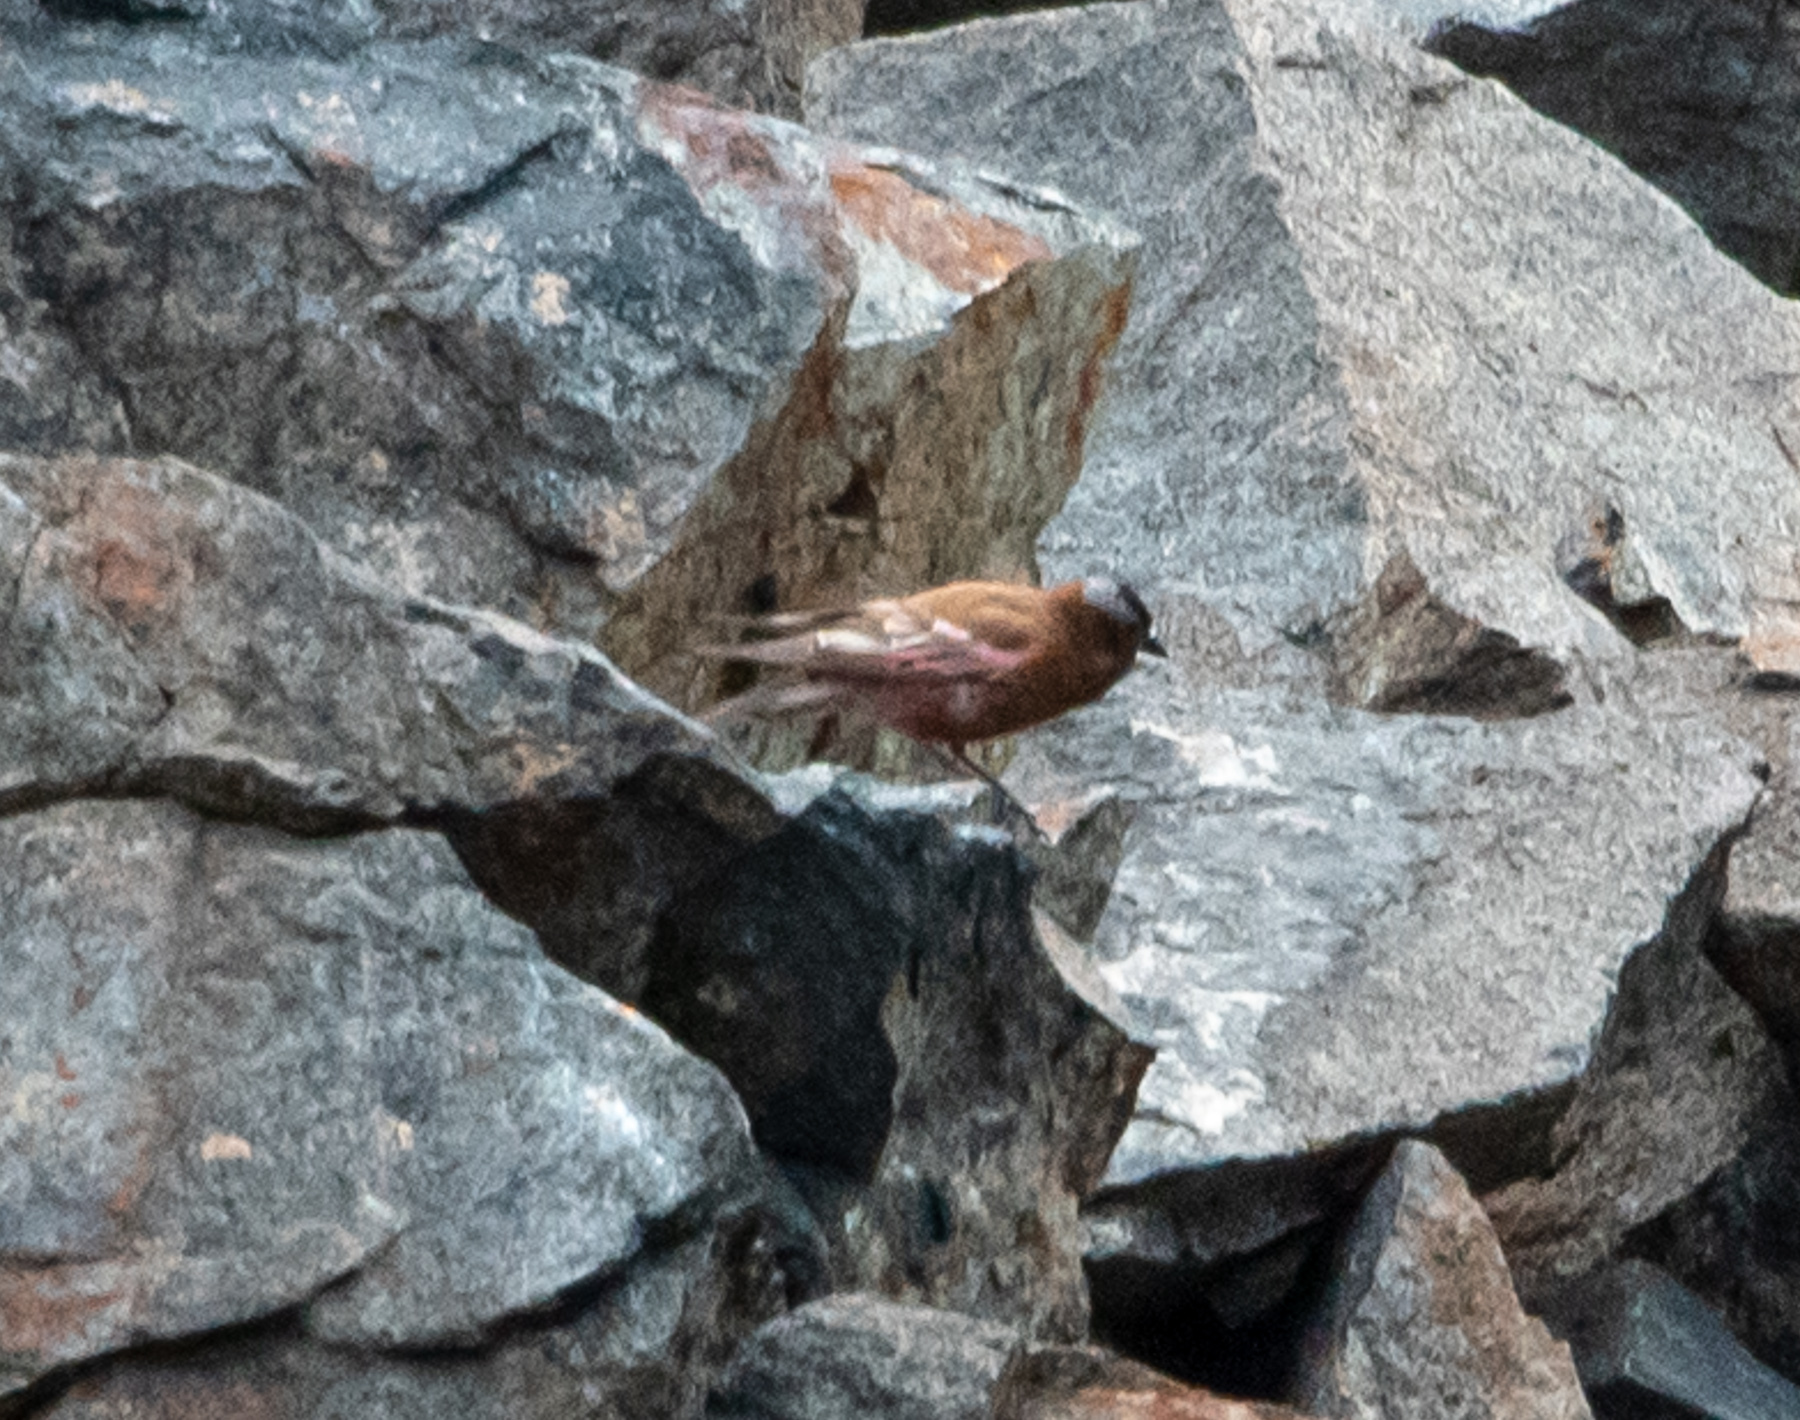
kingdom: Animalia
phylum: Chordata
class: Aves
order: Passeriformes
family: Fringillidae
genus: Leucosticte
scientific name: Leucosticte tephrocotis
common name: Gray-crowned rosy-finch
